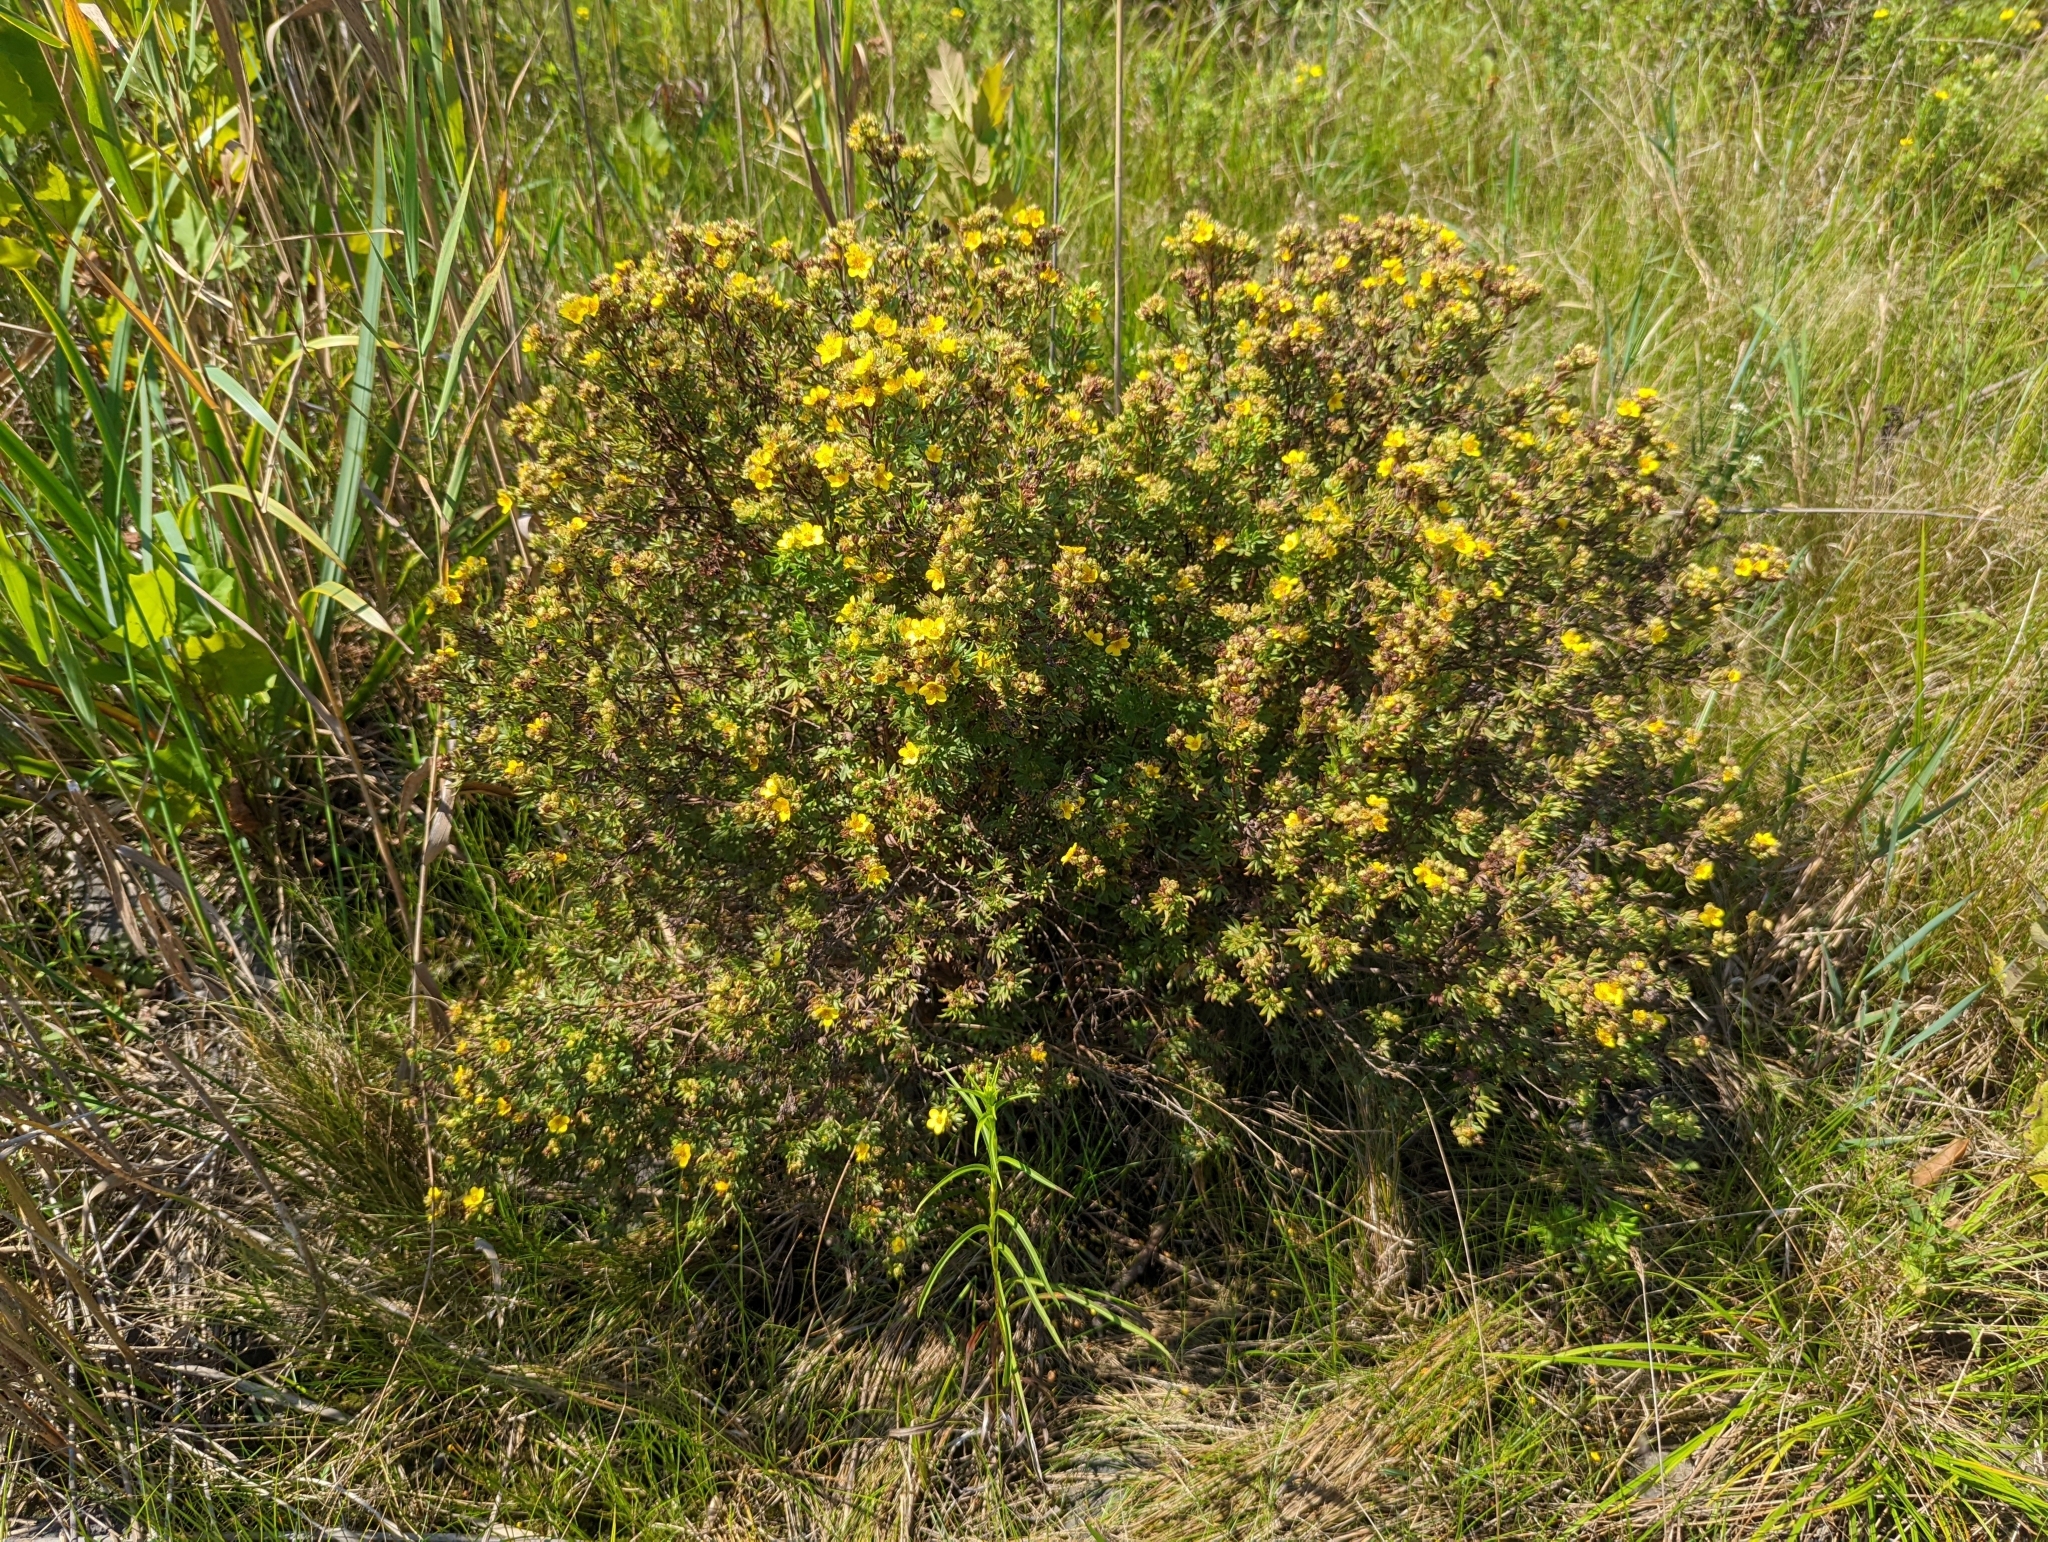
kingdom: Plantae
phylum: Tracheophyta
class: Magnoliopsida
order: Rosales
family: Rosaceae
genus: Dasiphora
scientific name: Dasiphora fruticosa
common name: Shrubby cinquefoil
